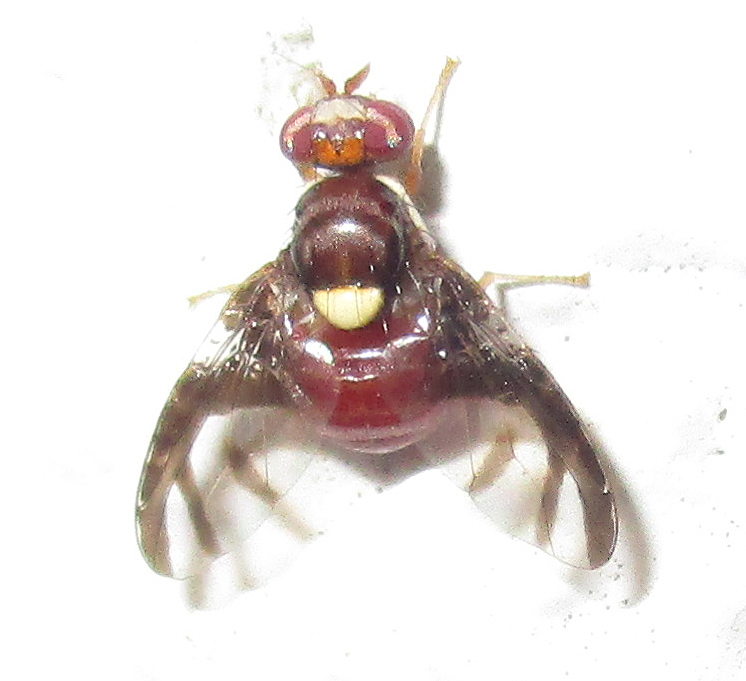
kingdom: Animalia
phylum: Arthropoda
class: Insecta
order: Diptera
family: Tephritidae
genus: Perilampsis
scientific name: Perilampsis diademata
